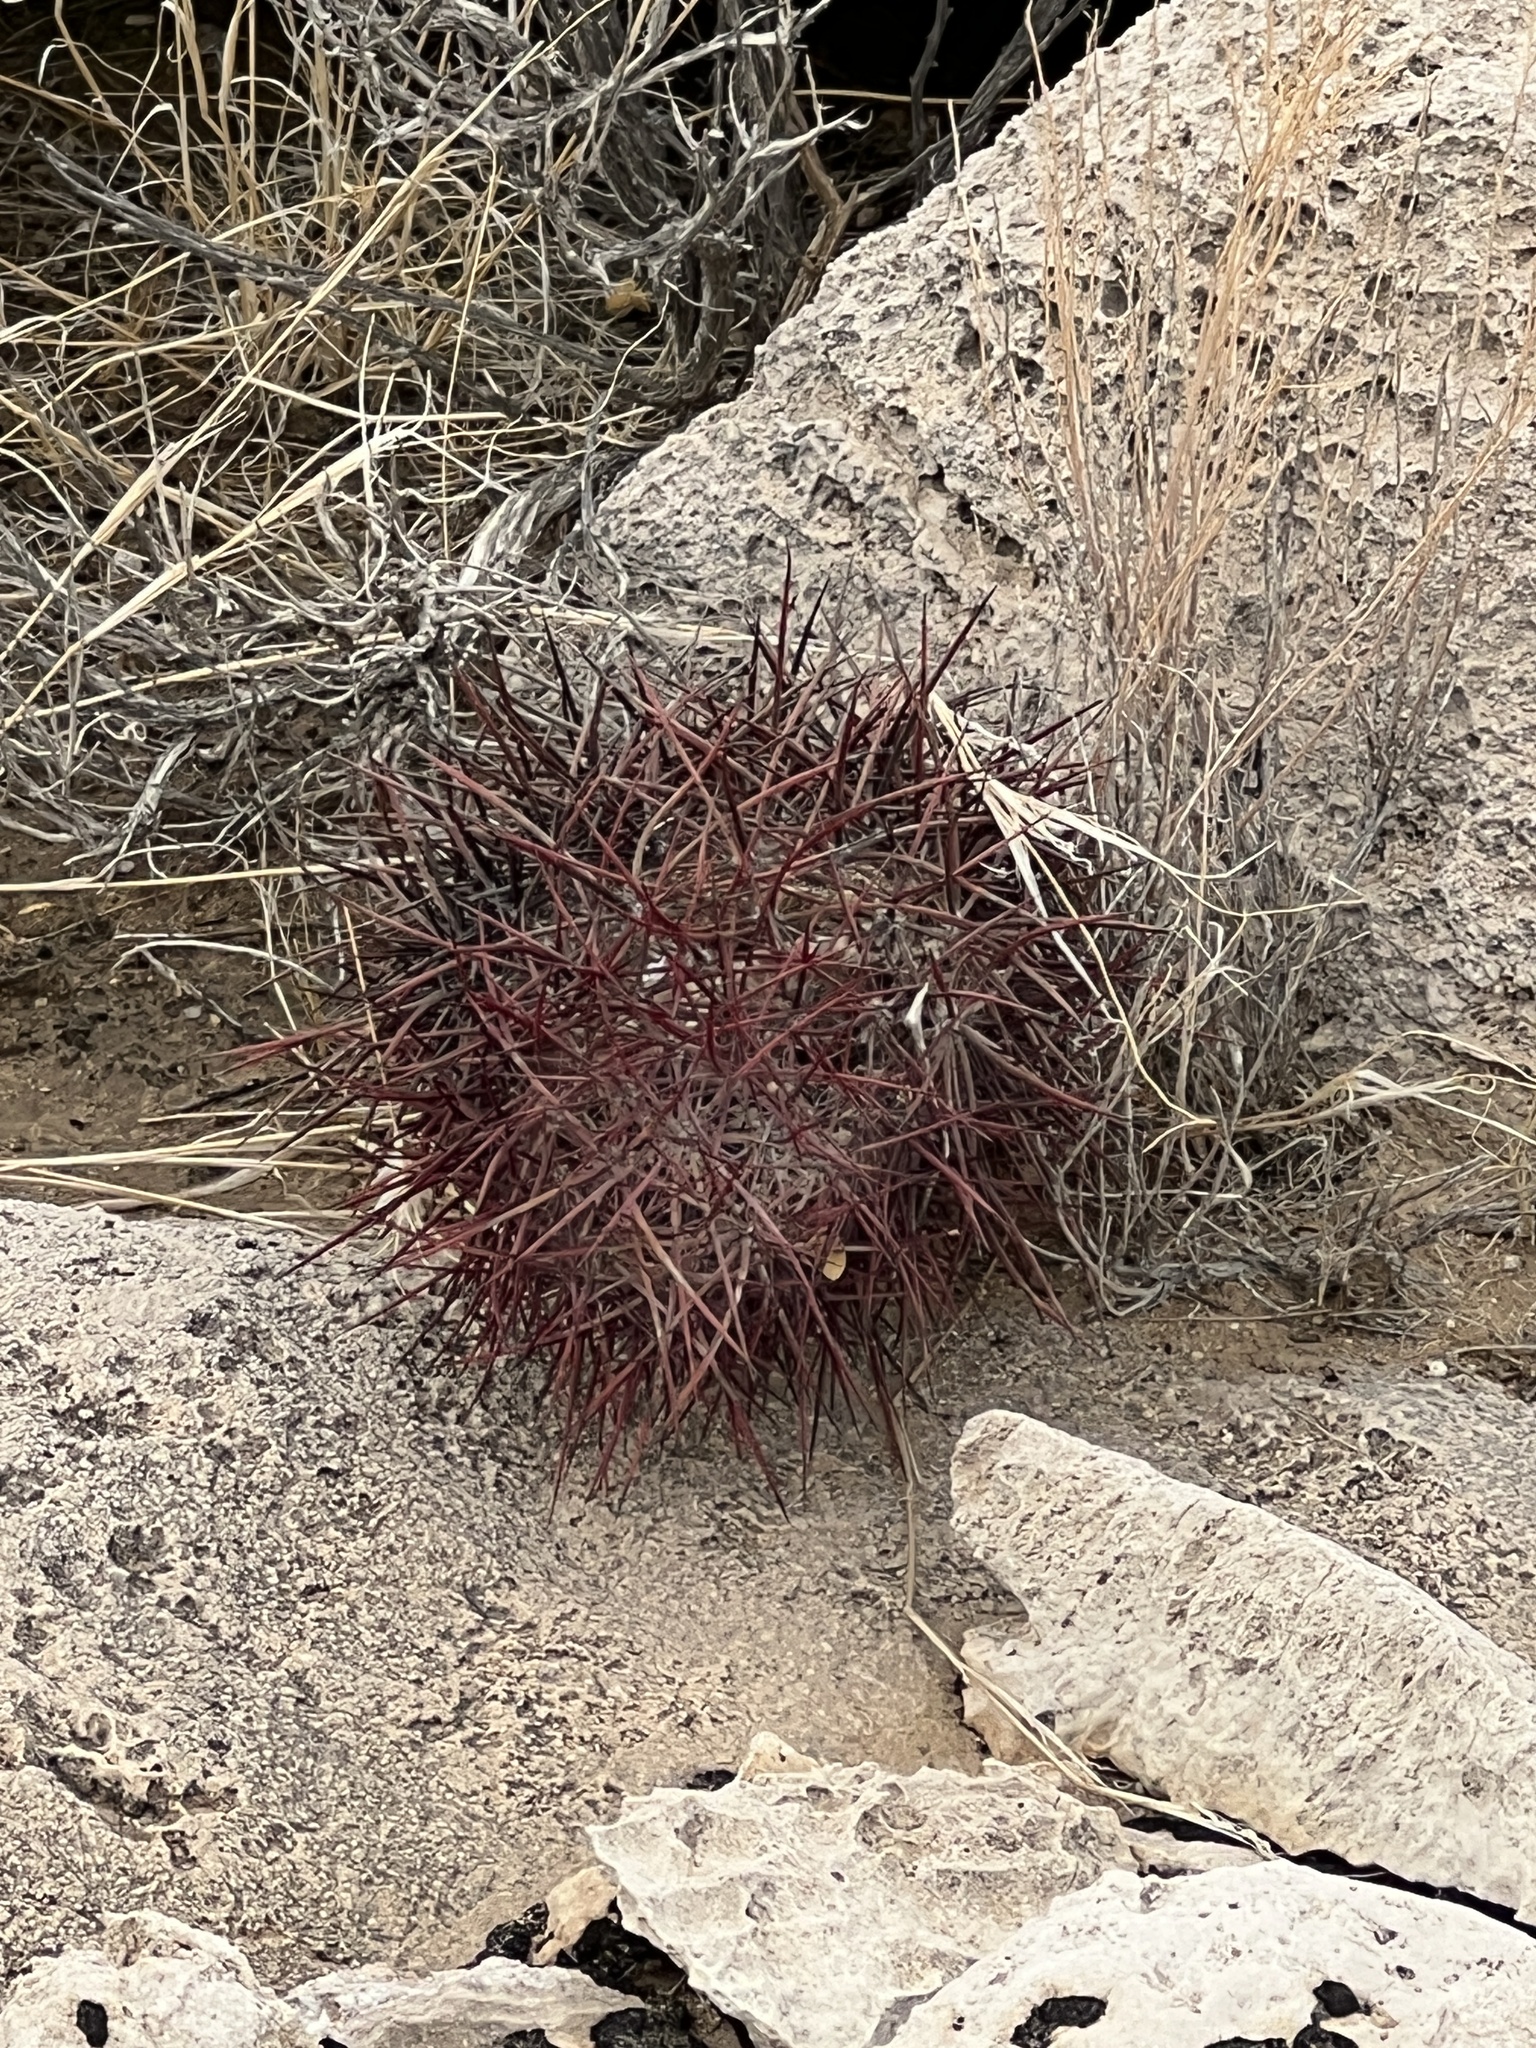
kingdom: Plantae
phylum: Tracheophyta
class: Magnoliopsida
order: Caryophyllales
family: Cactaceae
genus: Sclerocactus
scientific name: Sclerocactus johnsonii
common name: Eight-spine fishhook cactus
